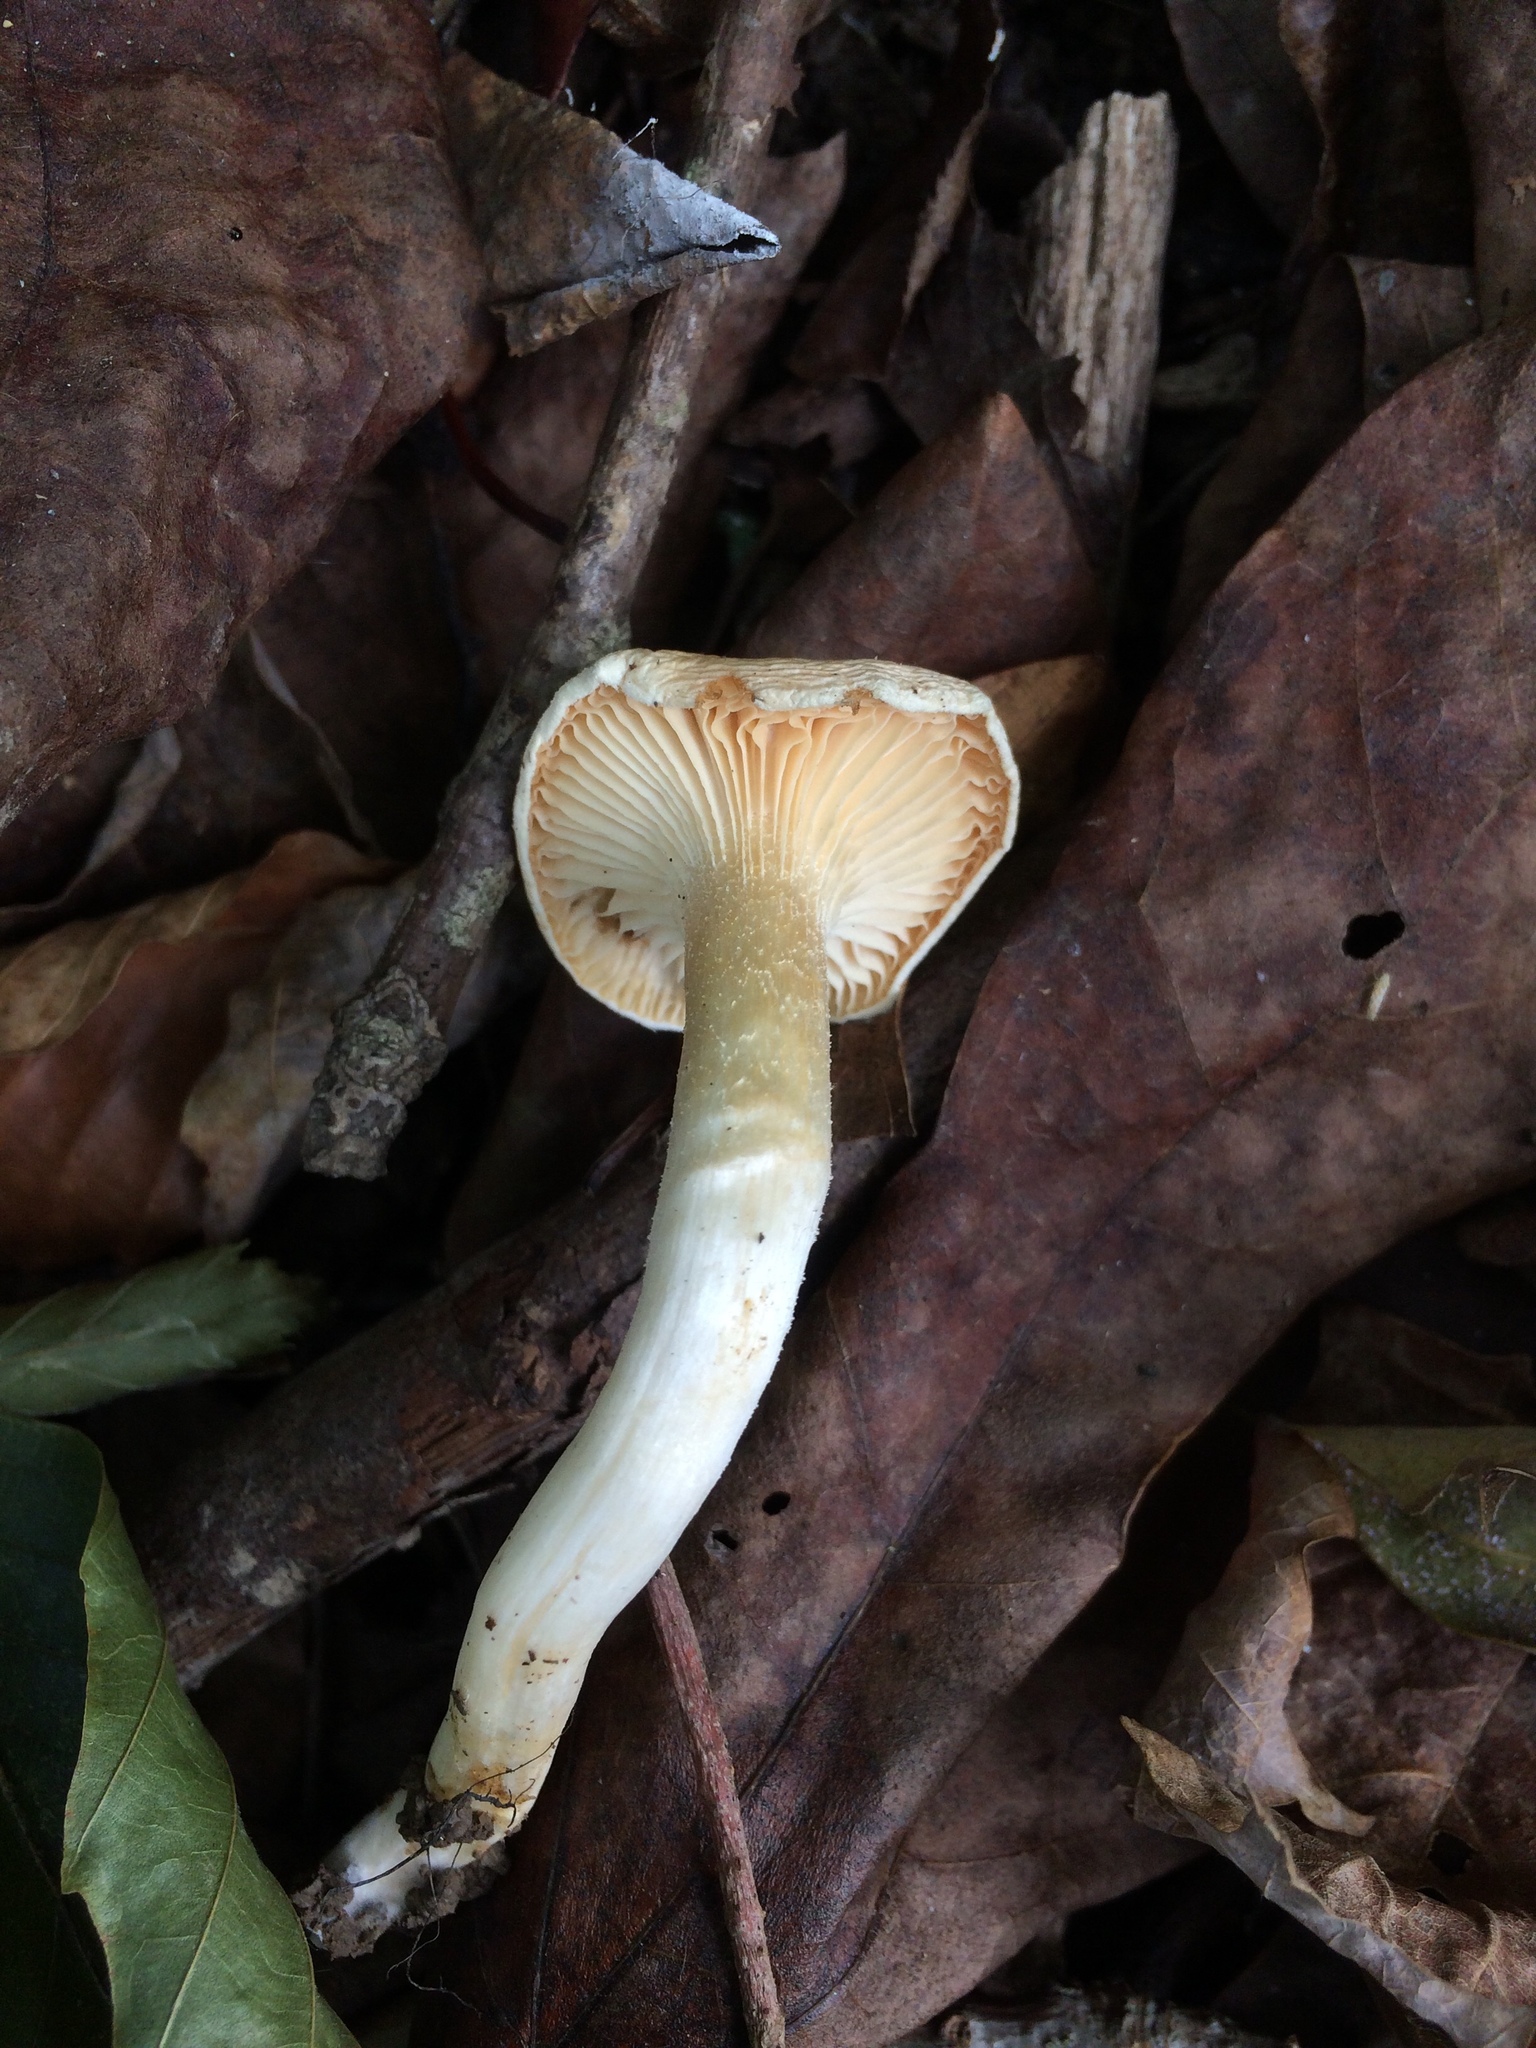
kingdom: Fungi
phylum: Basidiomycota
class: Agaricomycetes
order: Agaricales
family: Hygrophoraceae
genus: Cuphophyllus
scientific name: Cuphophyllus pratensis
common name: Meadow waxcap
